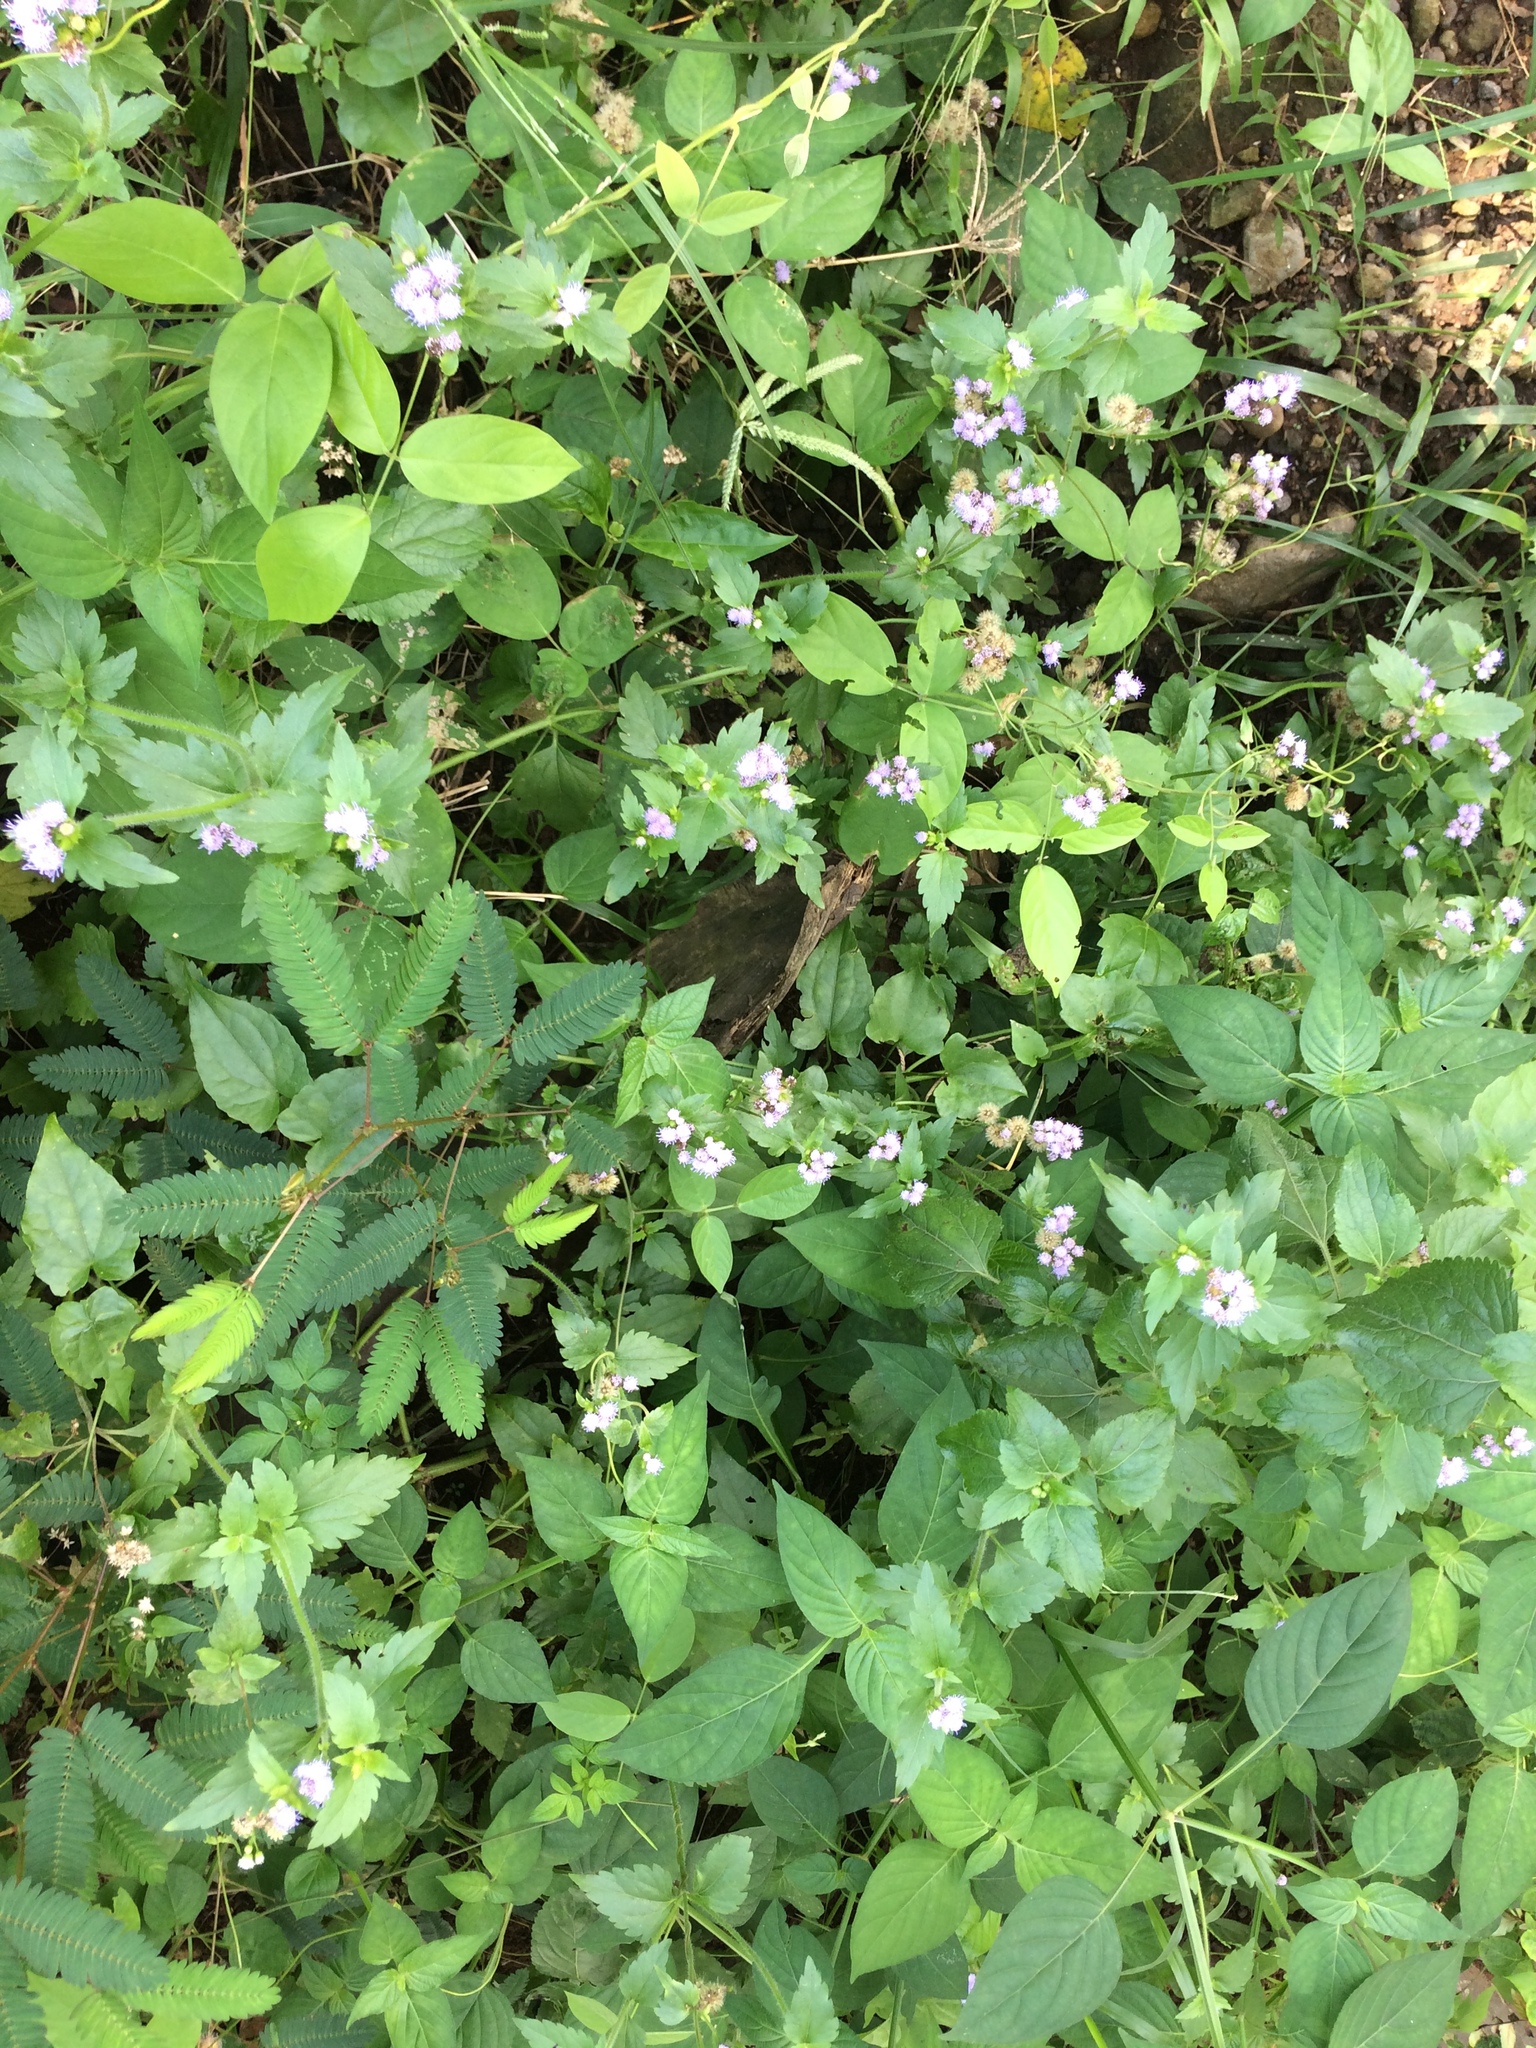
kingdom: Plantae
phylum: Tracheophyta
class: Magnoliopsida
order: Asterales
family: Asteraceae
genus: Praxelis
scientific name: Praxelis clematidea
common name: Praxelis
